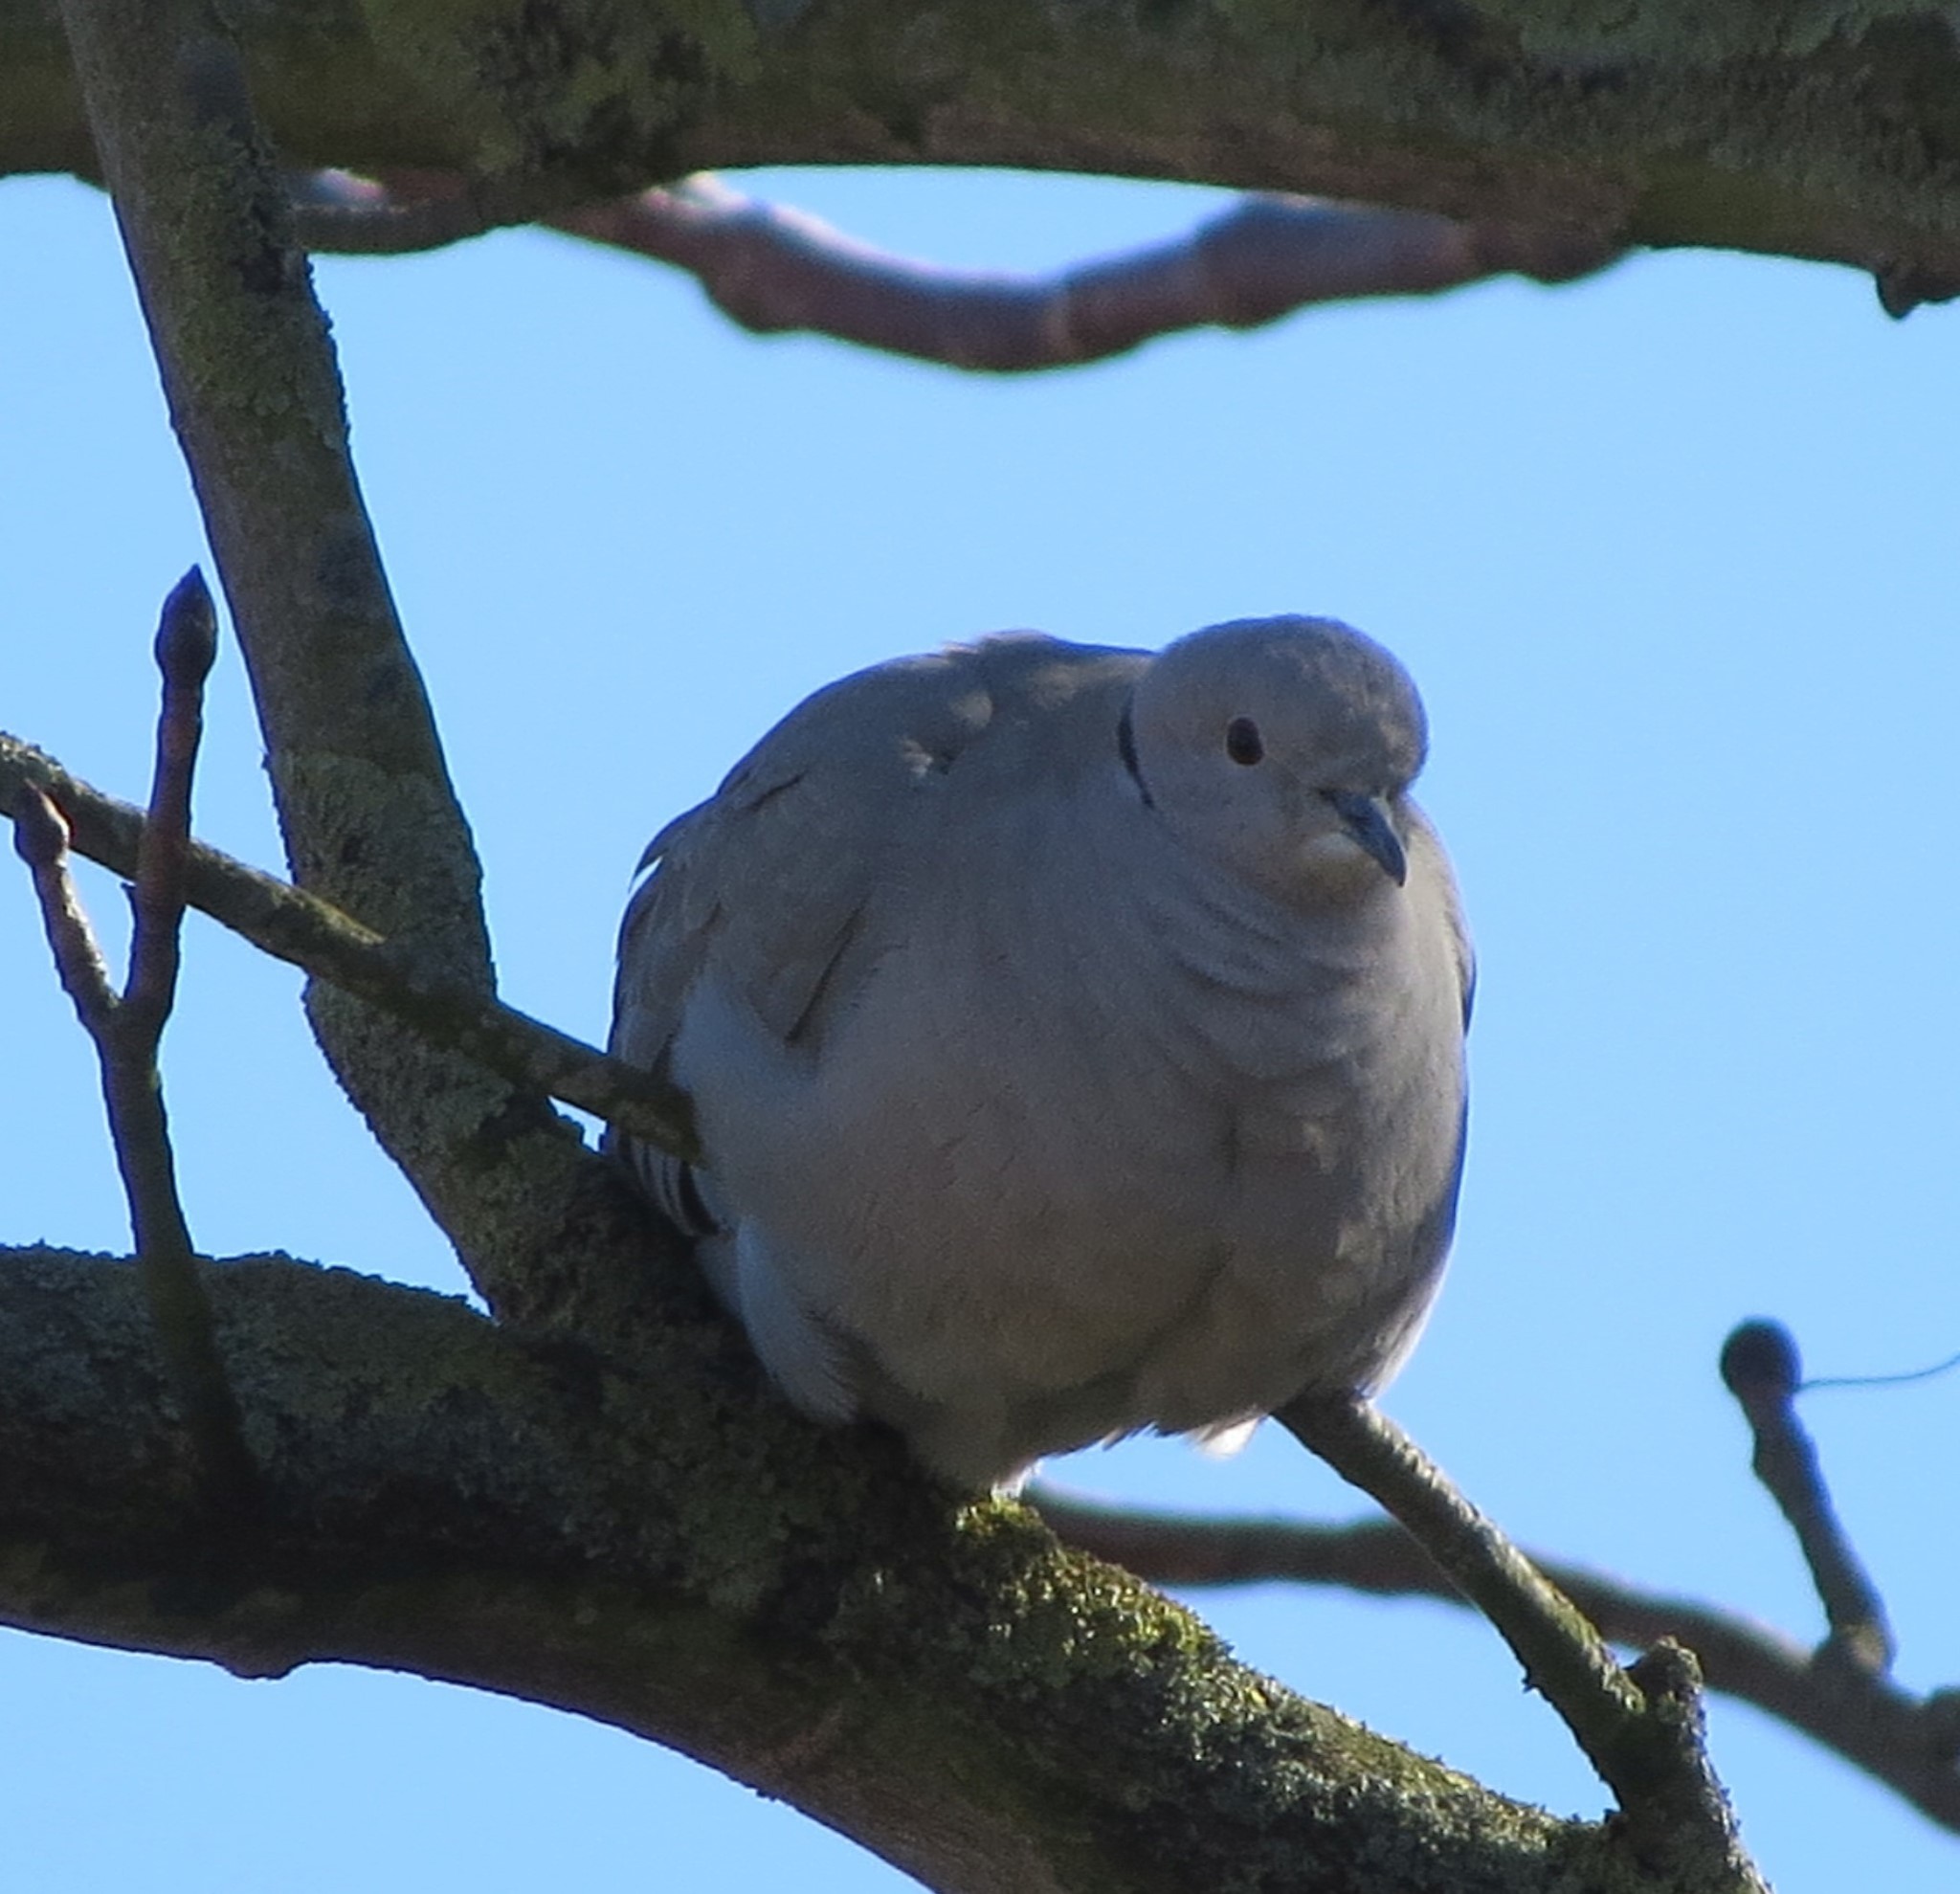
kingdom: Animalia
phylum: Chordata
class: Aves
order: Columbiformes
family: Columbidae
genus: Streptopelia
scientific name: Streptopelia decaocto
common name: Eurasian collared dove
